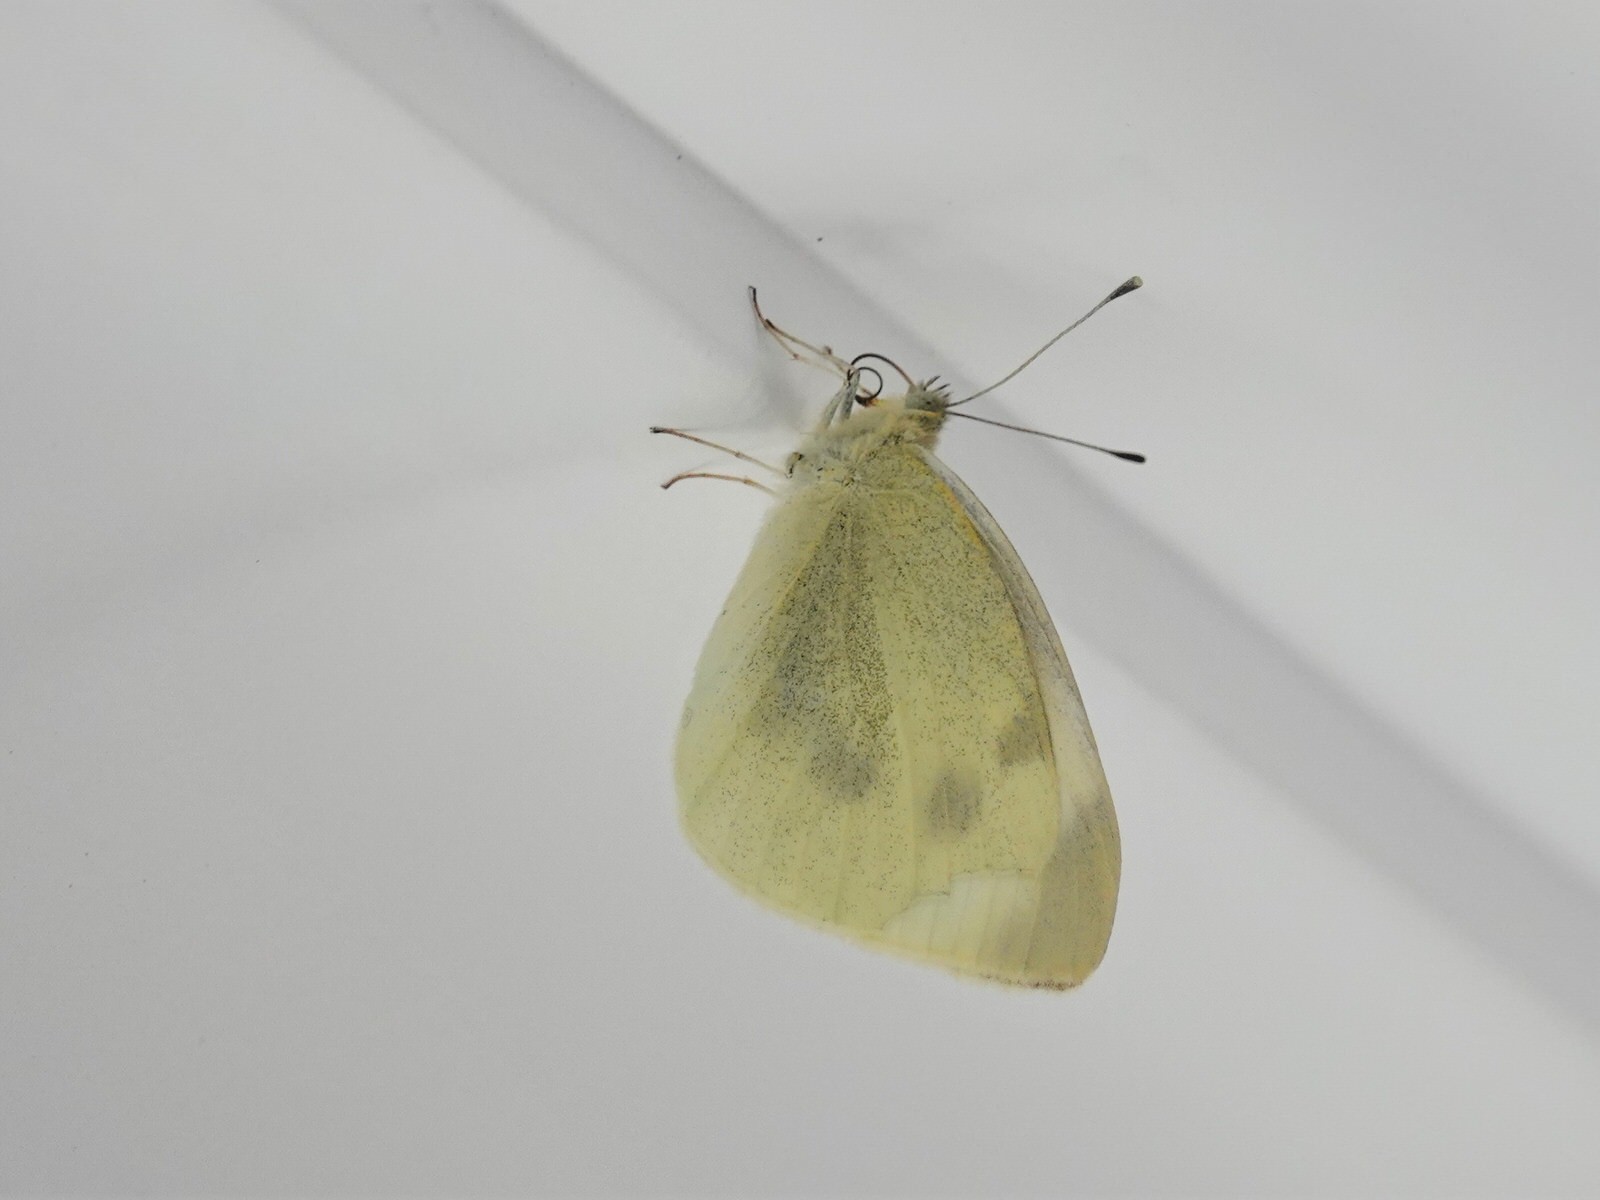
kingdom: Animalia
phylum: Arthropoda
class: Insecta
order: Lepidoptera
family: Pieridae
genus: Pieris
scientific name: Pieris rapae
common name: Small white
